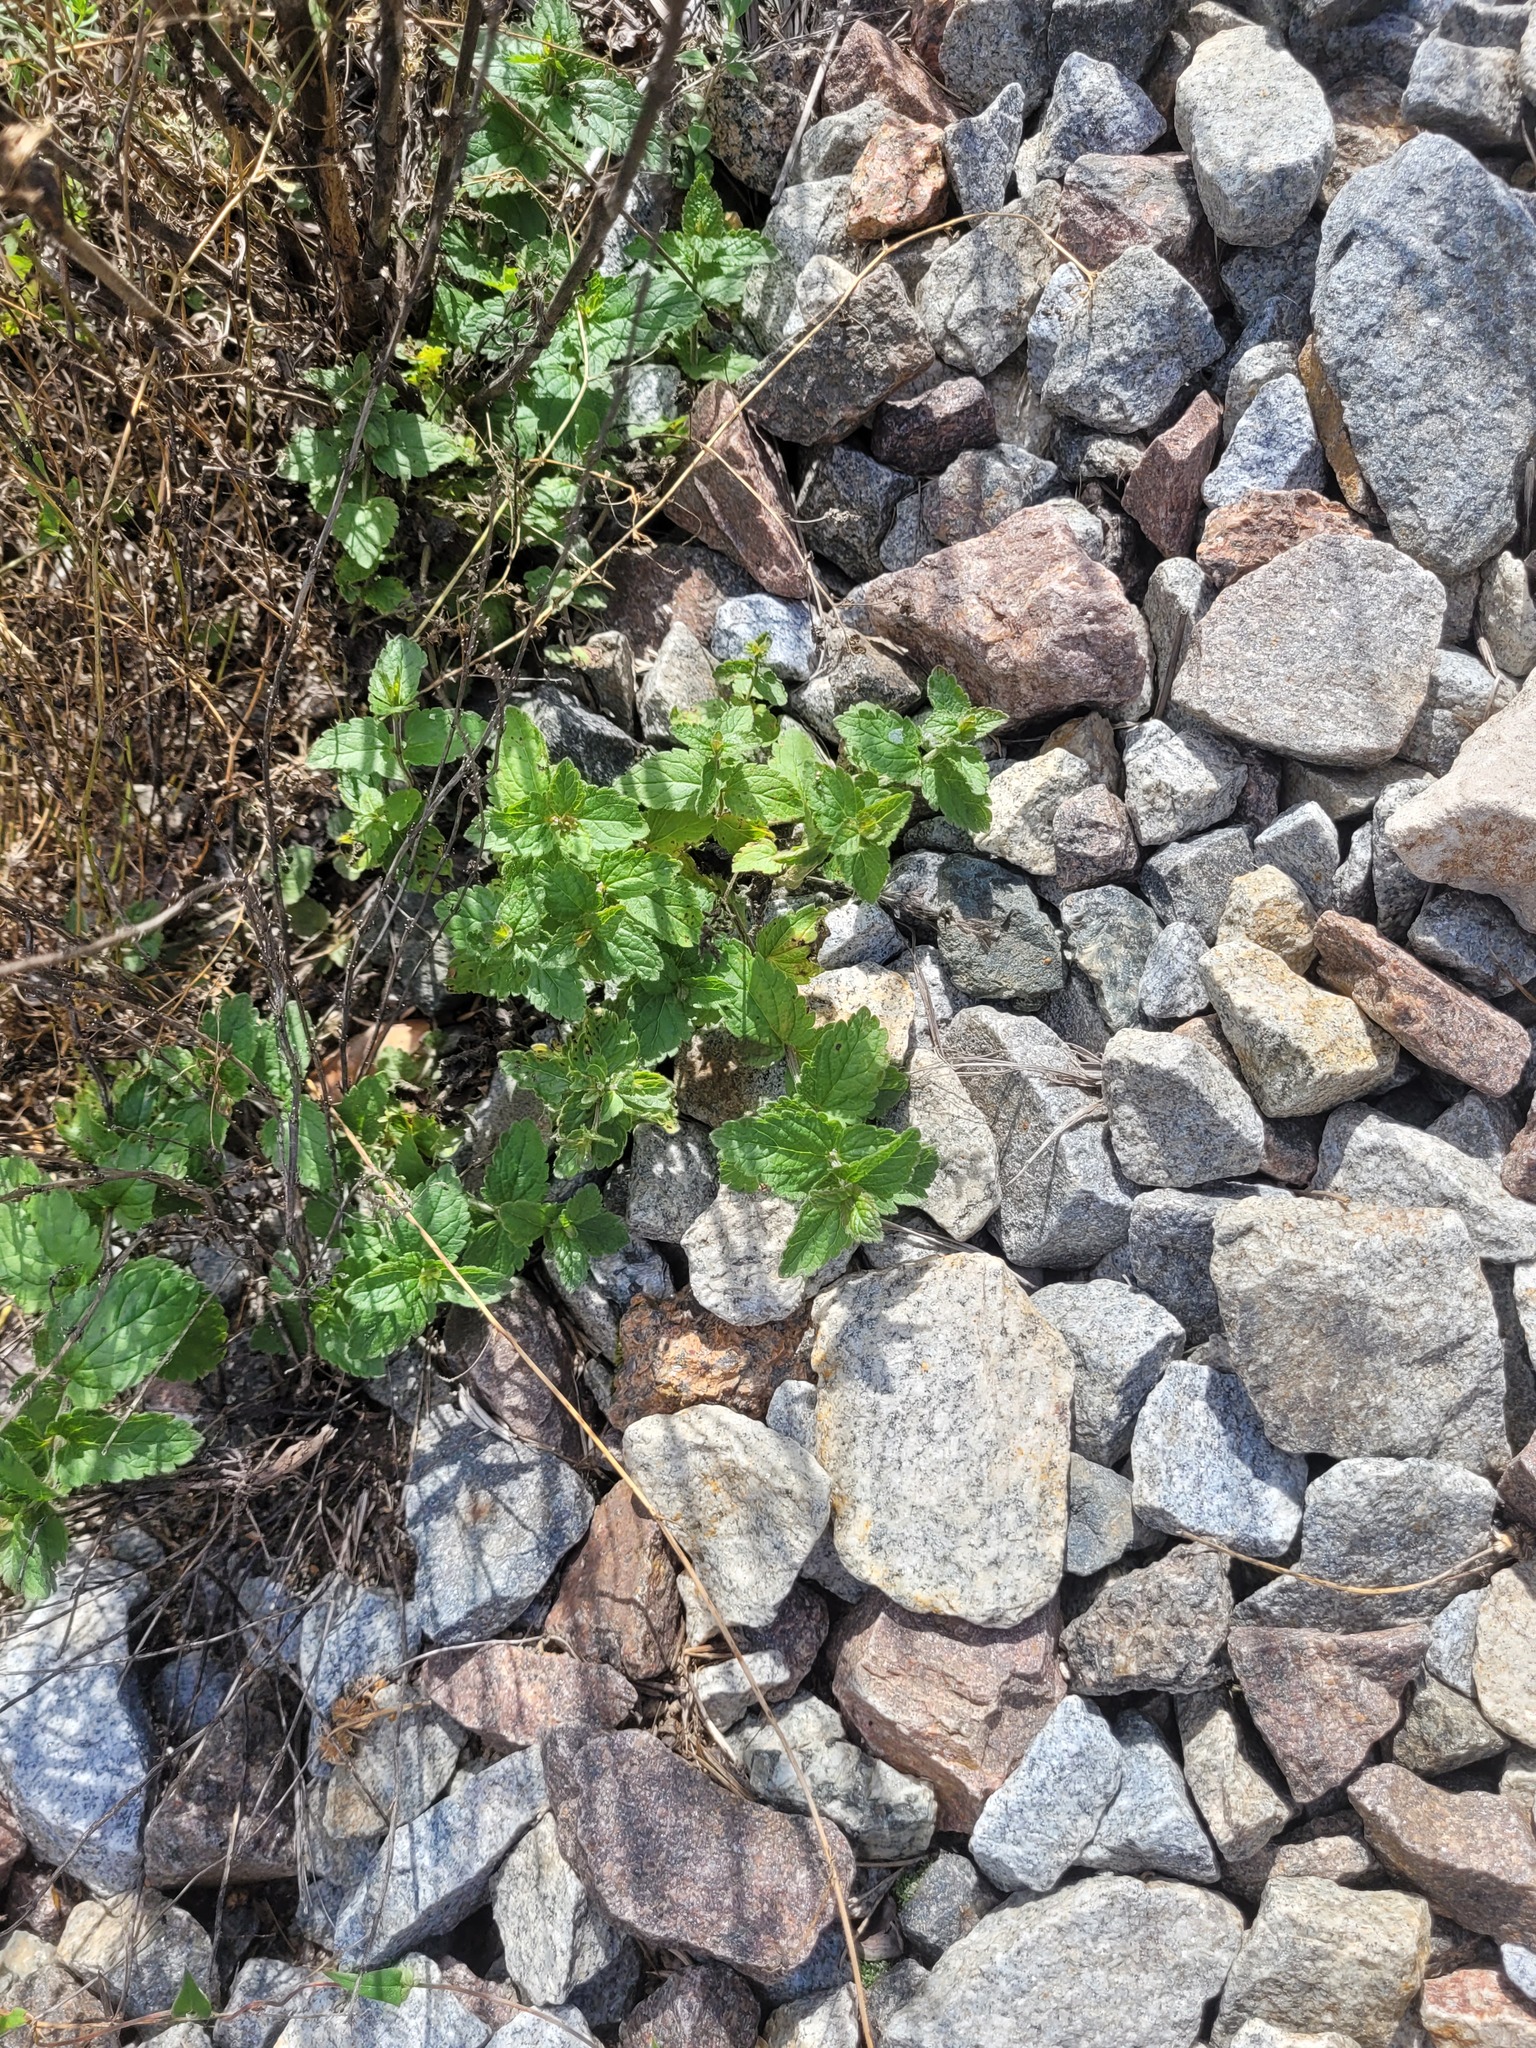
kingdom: Plantae
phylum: Tracheophyta
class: Magnoliopsida
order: Lamiales
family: Plantaginaceae
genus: Veronica
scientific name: Veronica chamaedrys
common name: Germander speedwell
